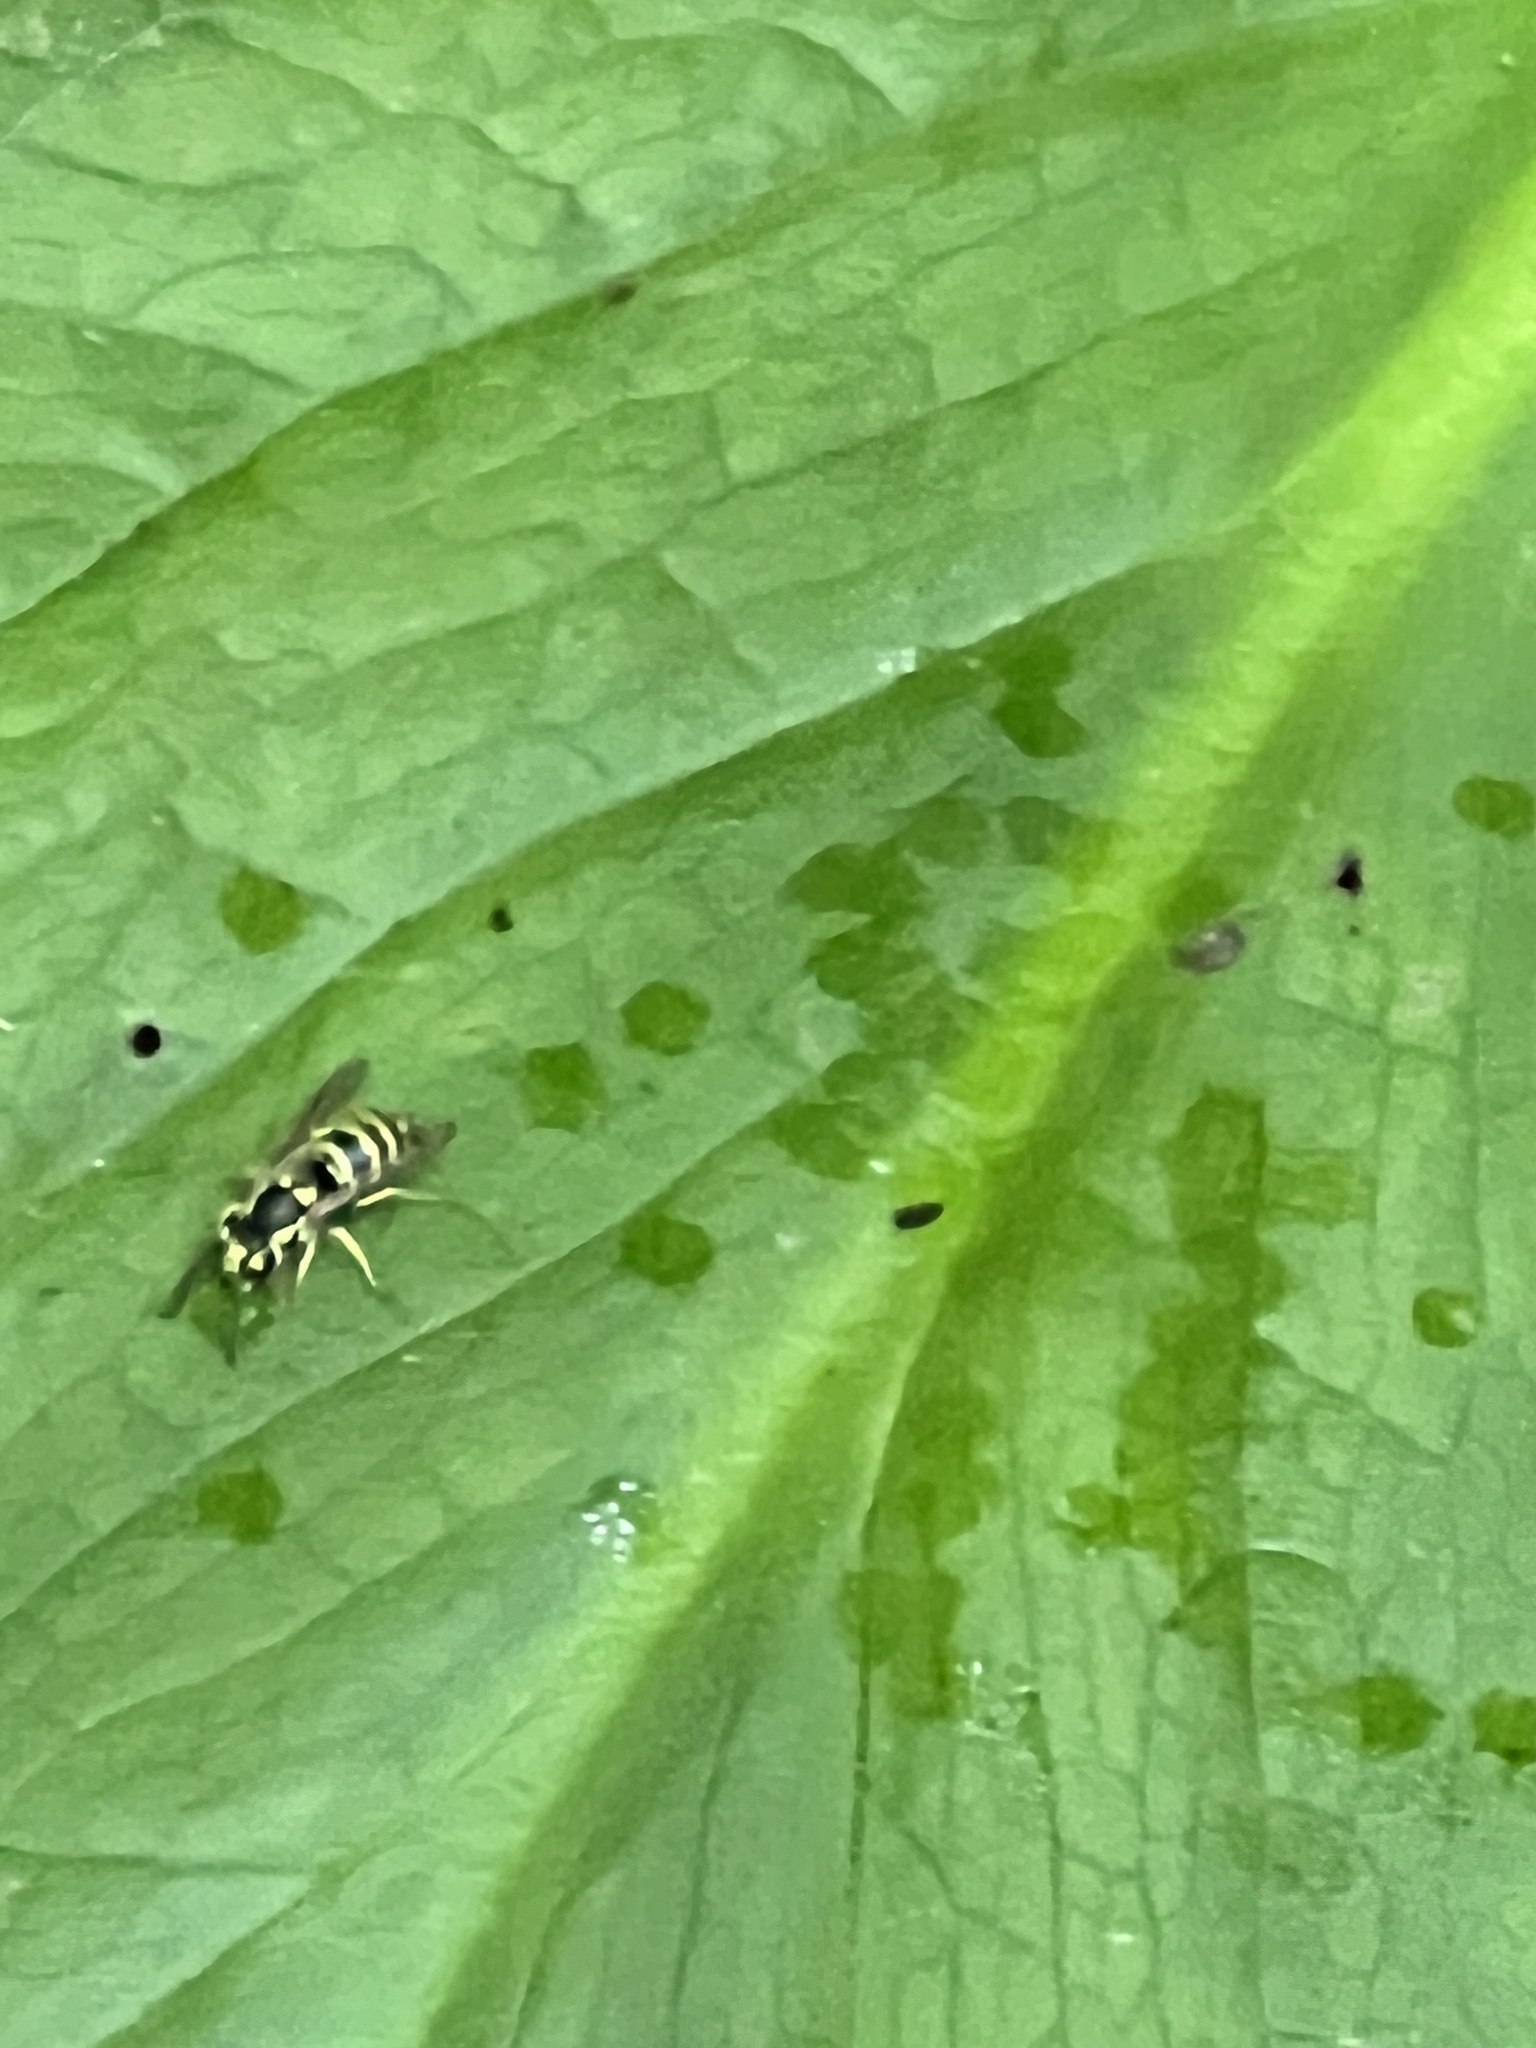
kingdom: Animalia
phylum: Arthropoda
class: Insecta
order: Hymenoptera
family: Vespidae
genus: Vespula
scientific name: Vespula maculifrons
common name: Eastern yellowjacket
